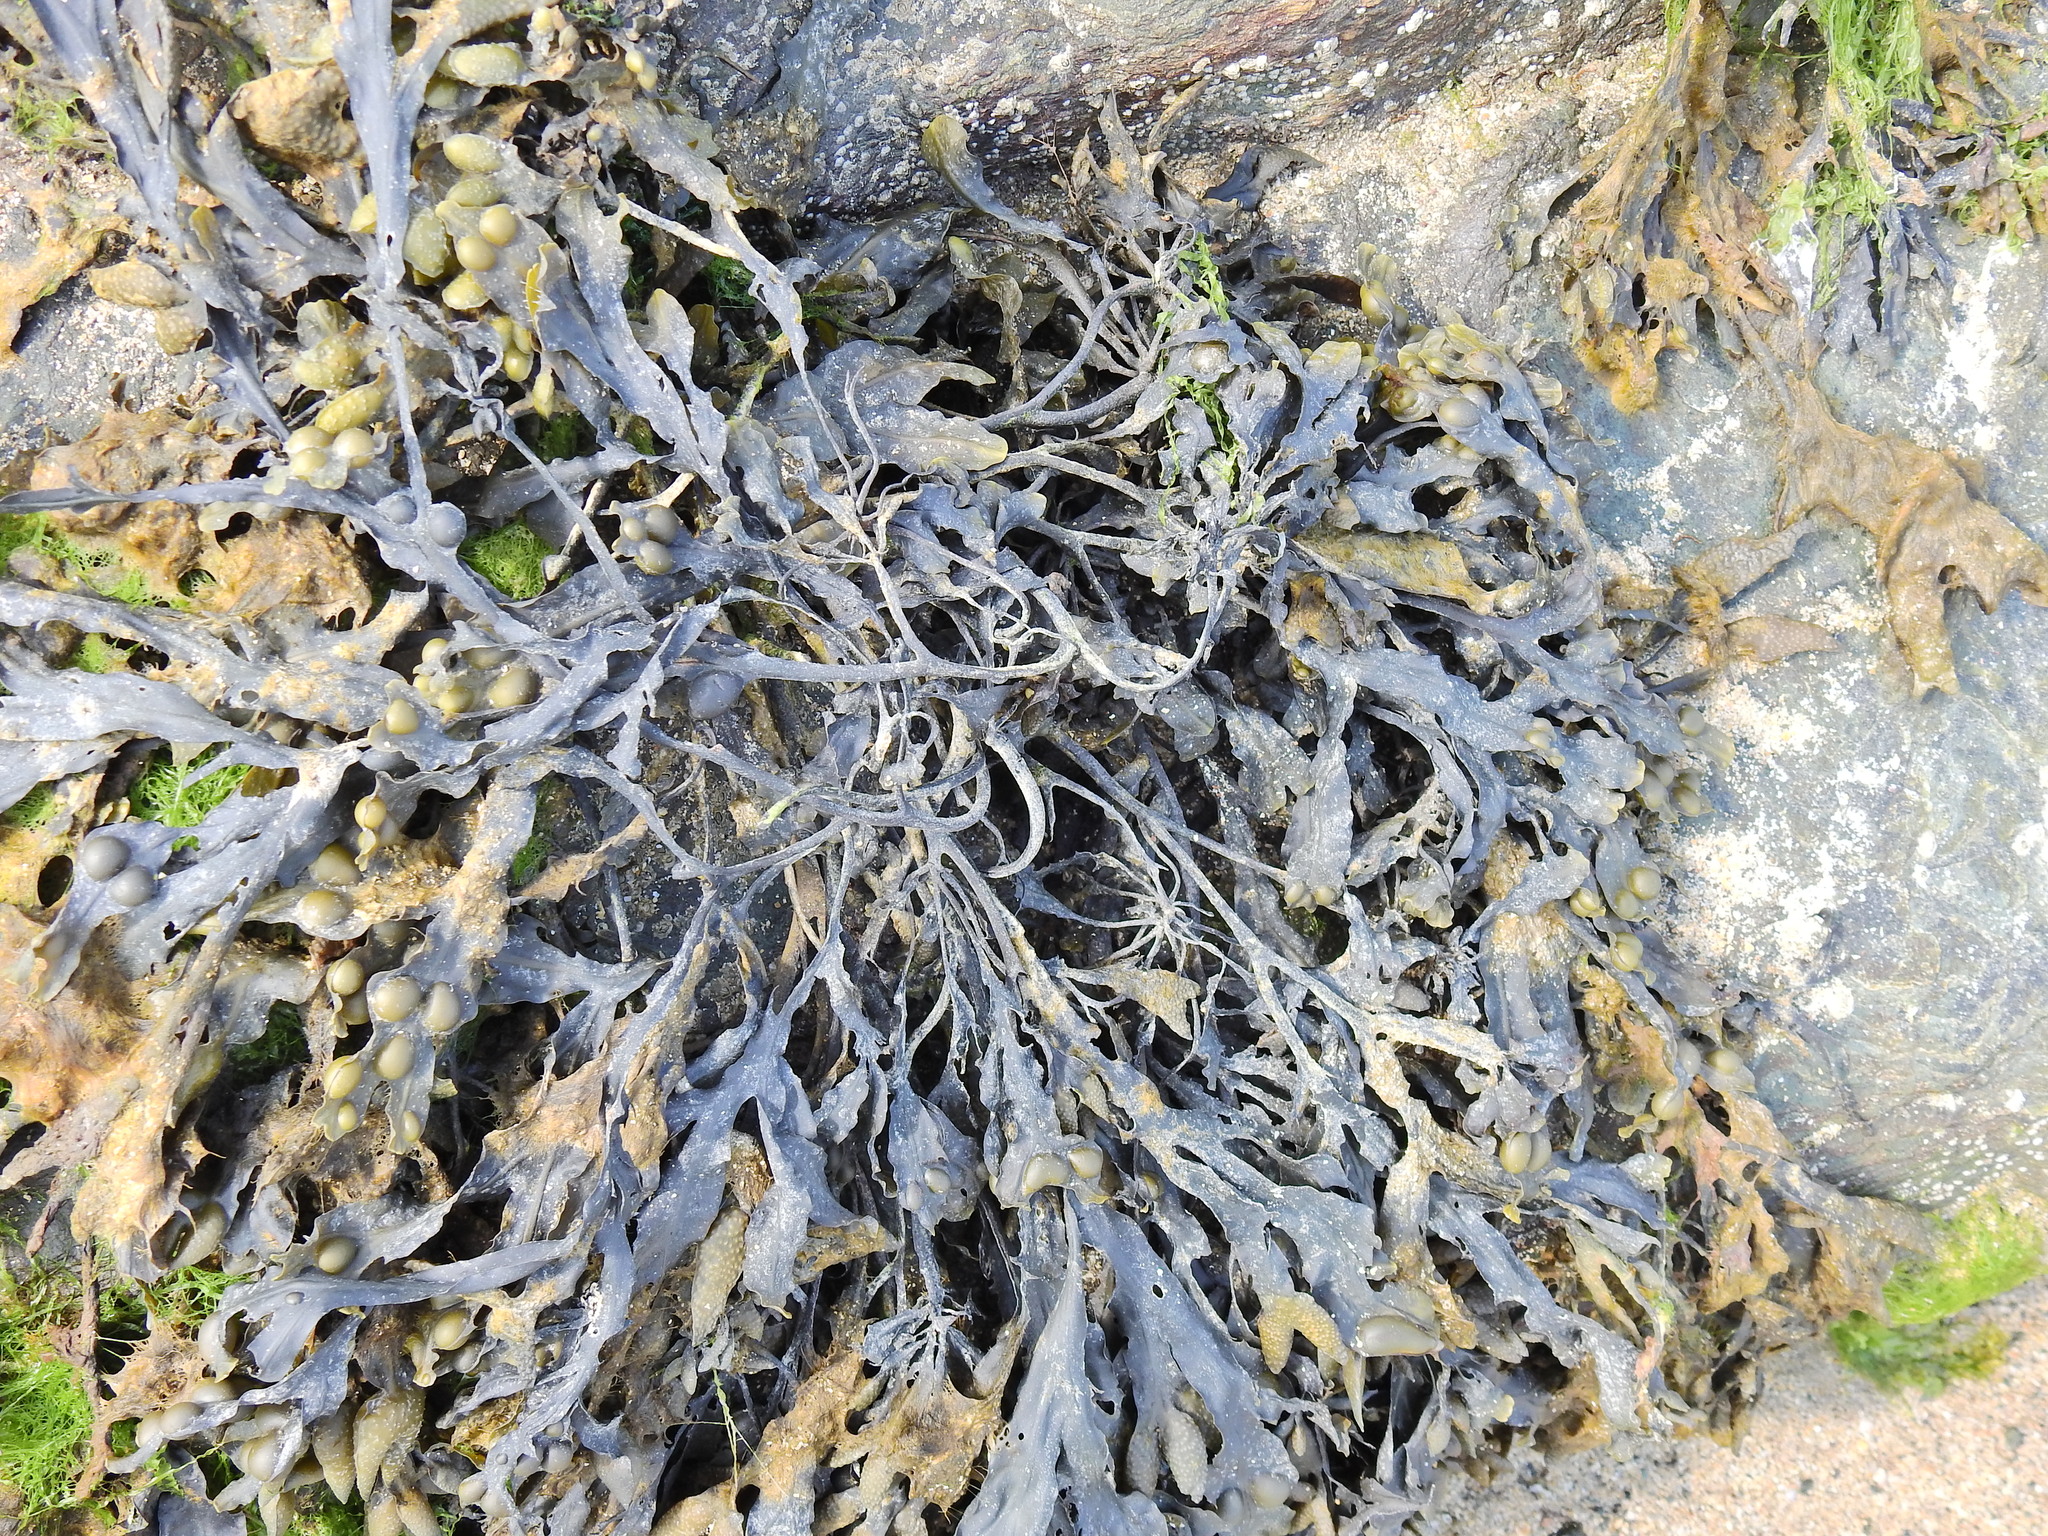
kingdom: Chromista
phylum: Ochrophyta
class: Phaeophyceae
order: Fucales
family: Fucaceae
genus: Fucus
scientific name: Fucus vesiculosus
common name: Bladder wrack
